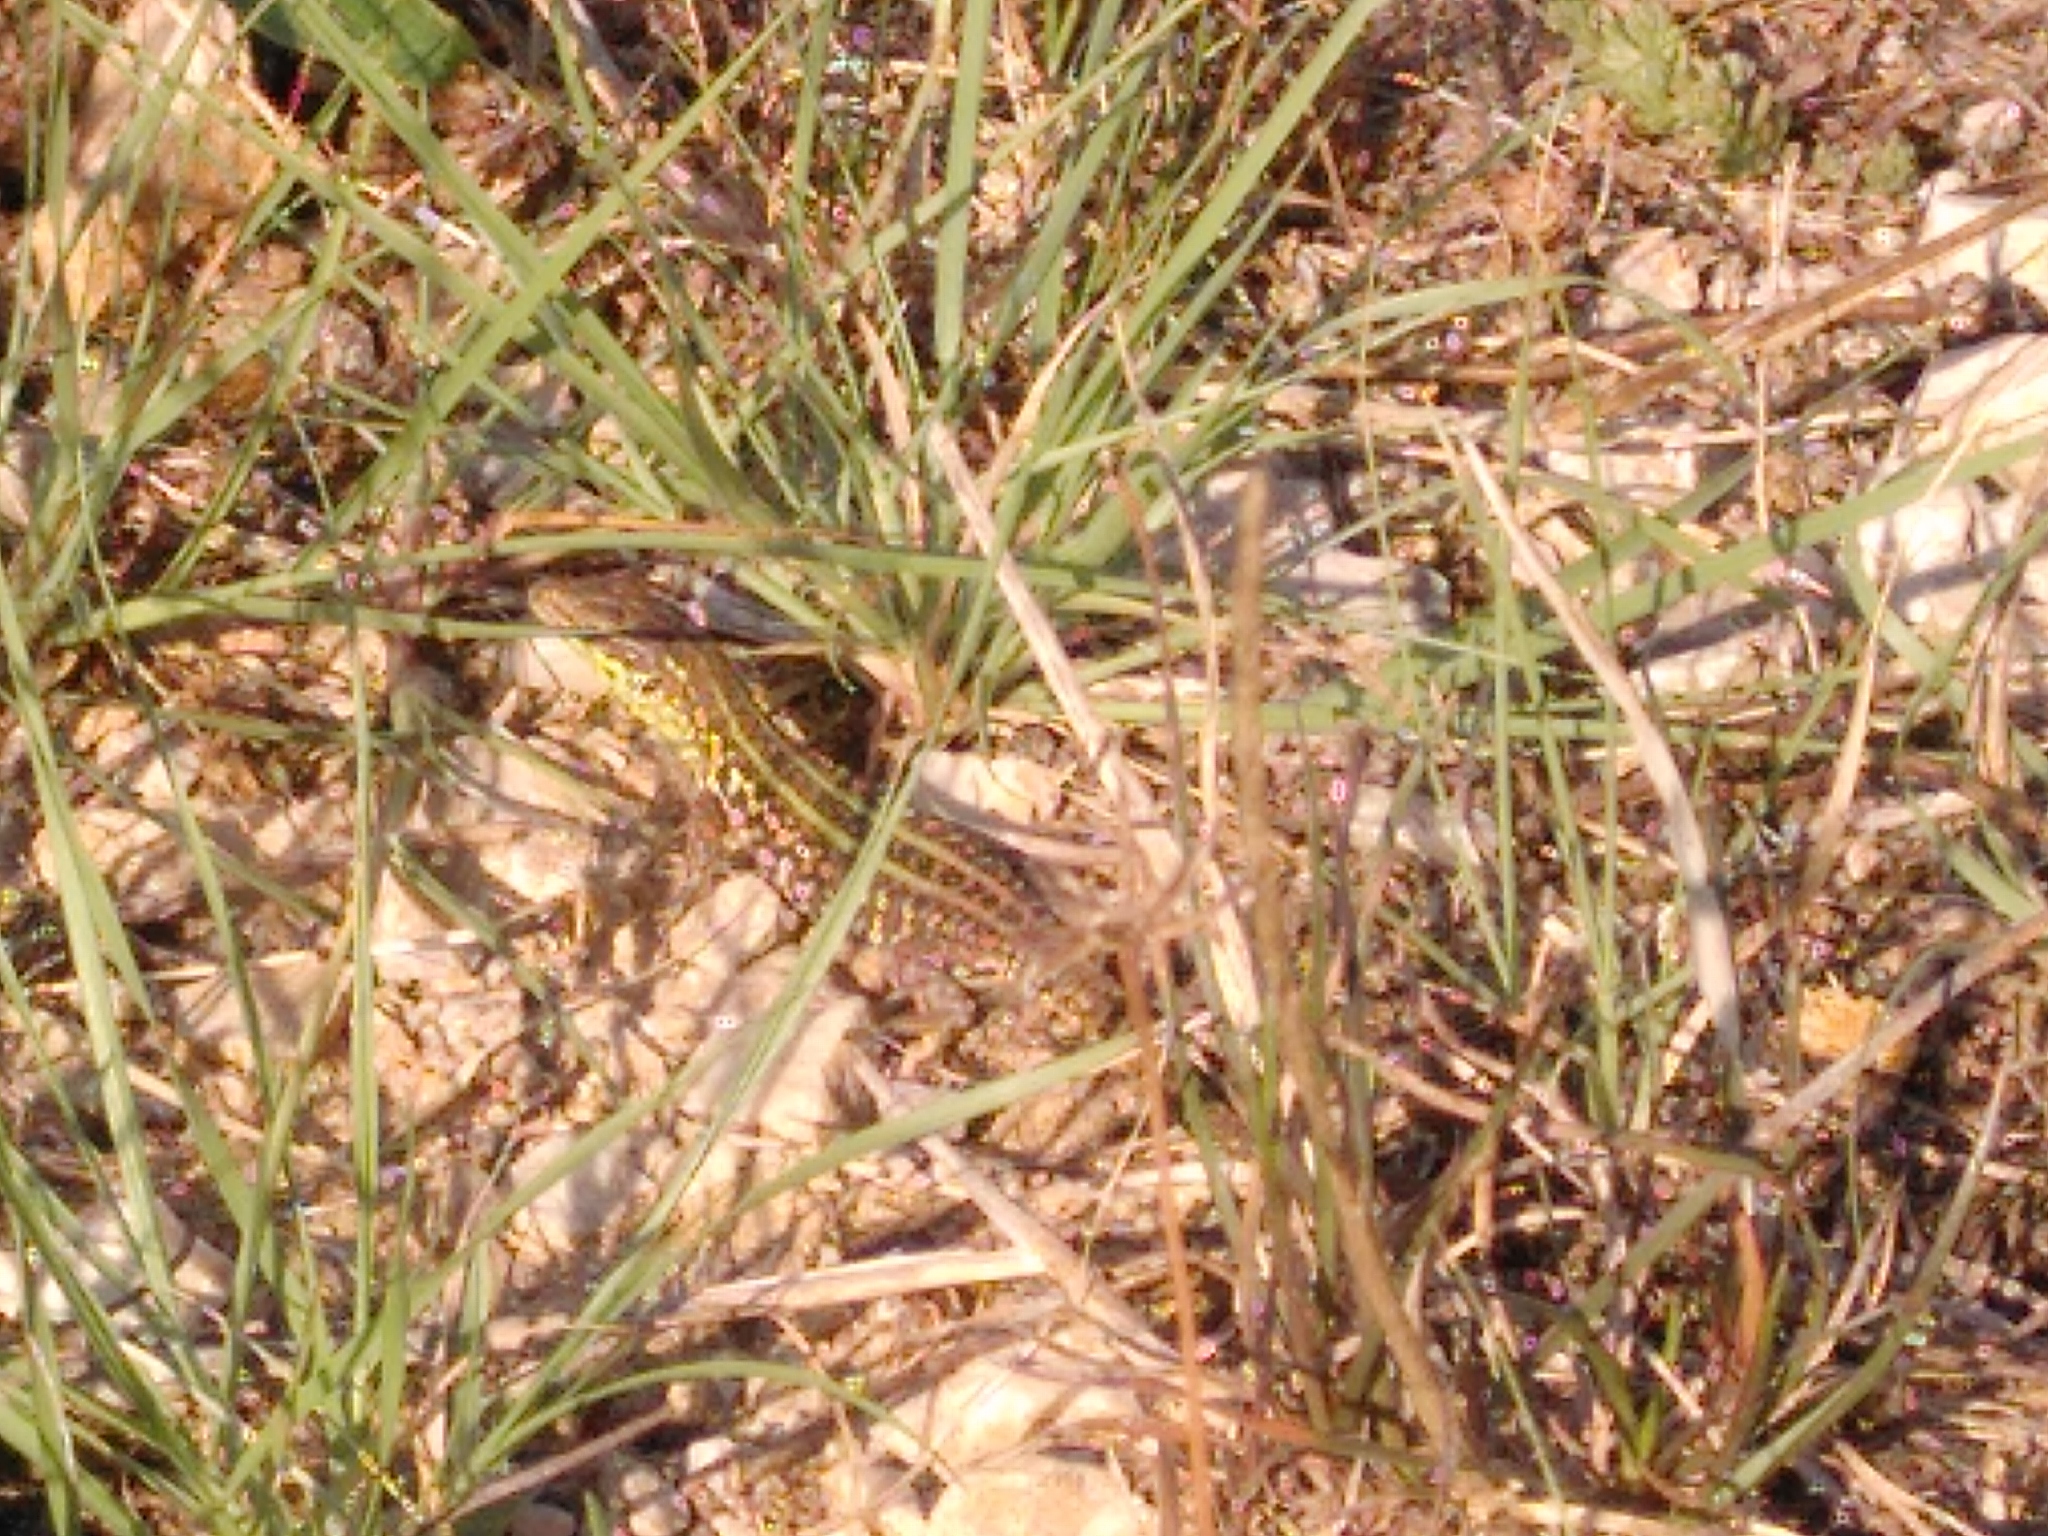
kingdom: Animalia
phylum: Chordata
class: Squamata
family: Lacertidae
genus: Podarcis
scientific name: Podarcis siculus
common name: Italian wall lizard
